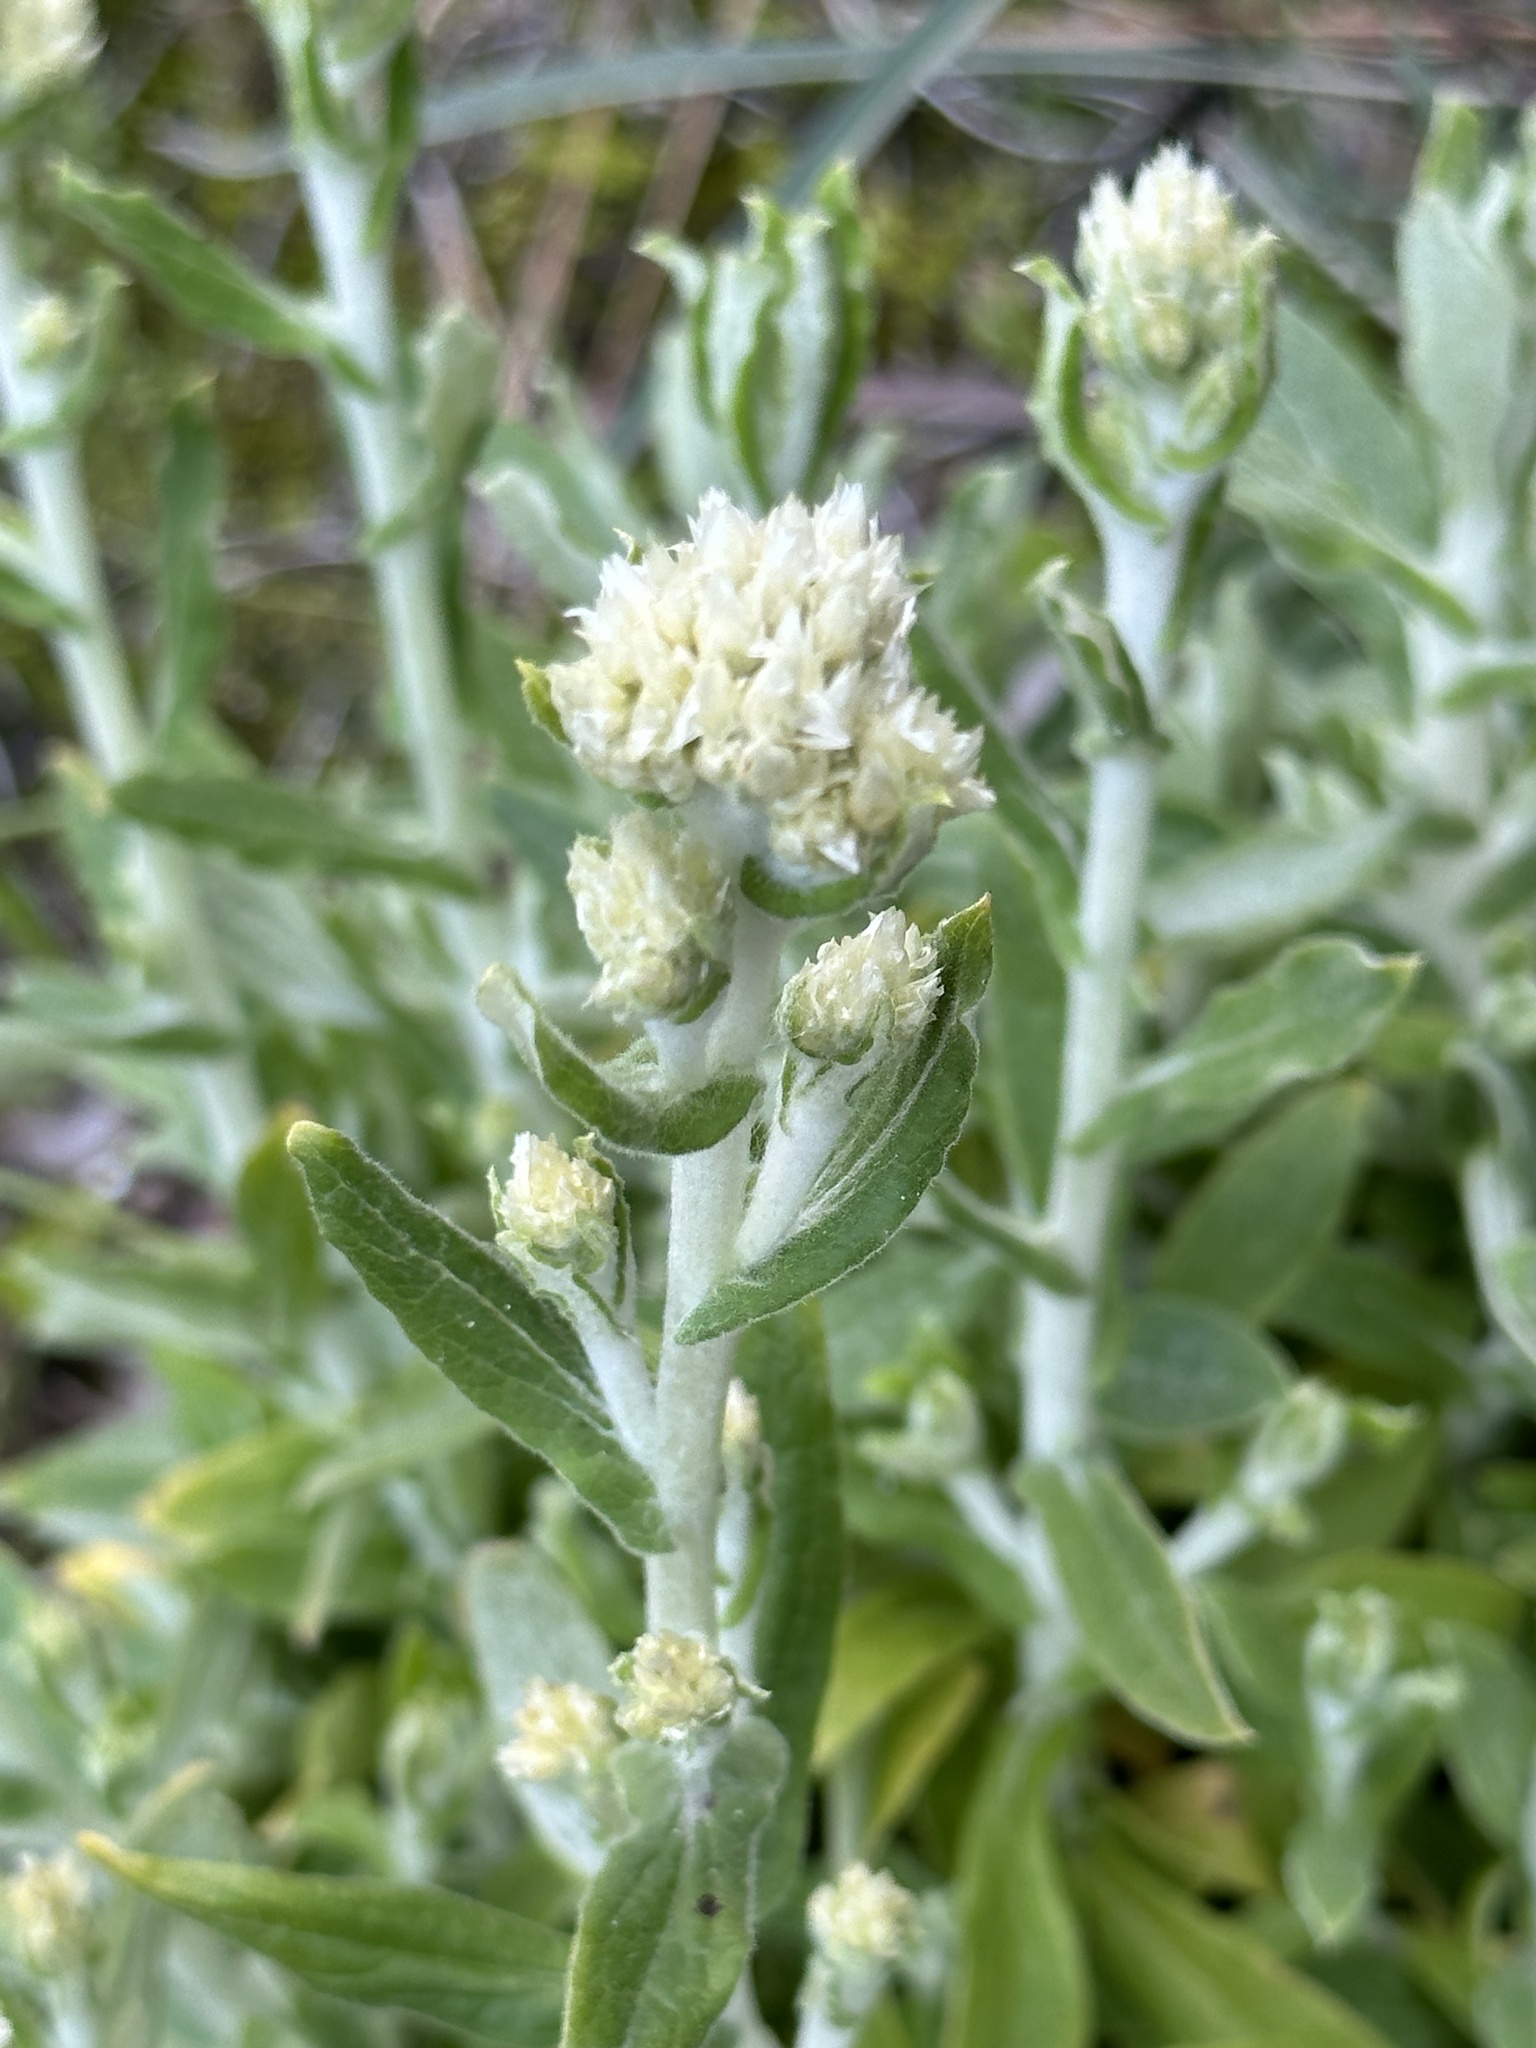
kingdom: Plantae
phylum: Tracheophyta
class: Magnoliopsida
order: Asterales
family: Asteraceae
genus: Pseudognaphalium
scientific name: Pseudognaphalium biolettii
